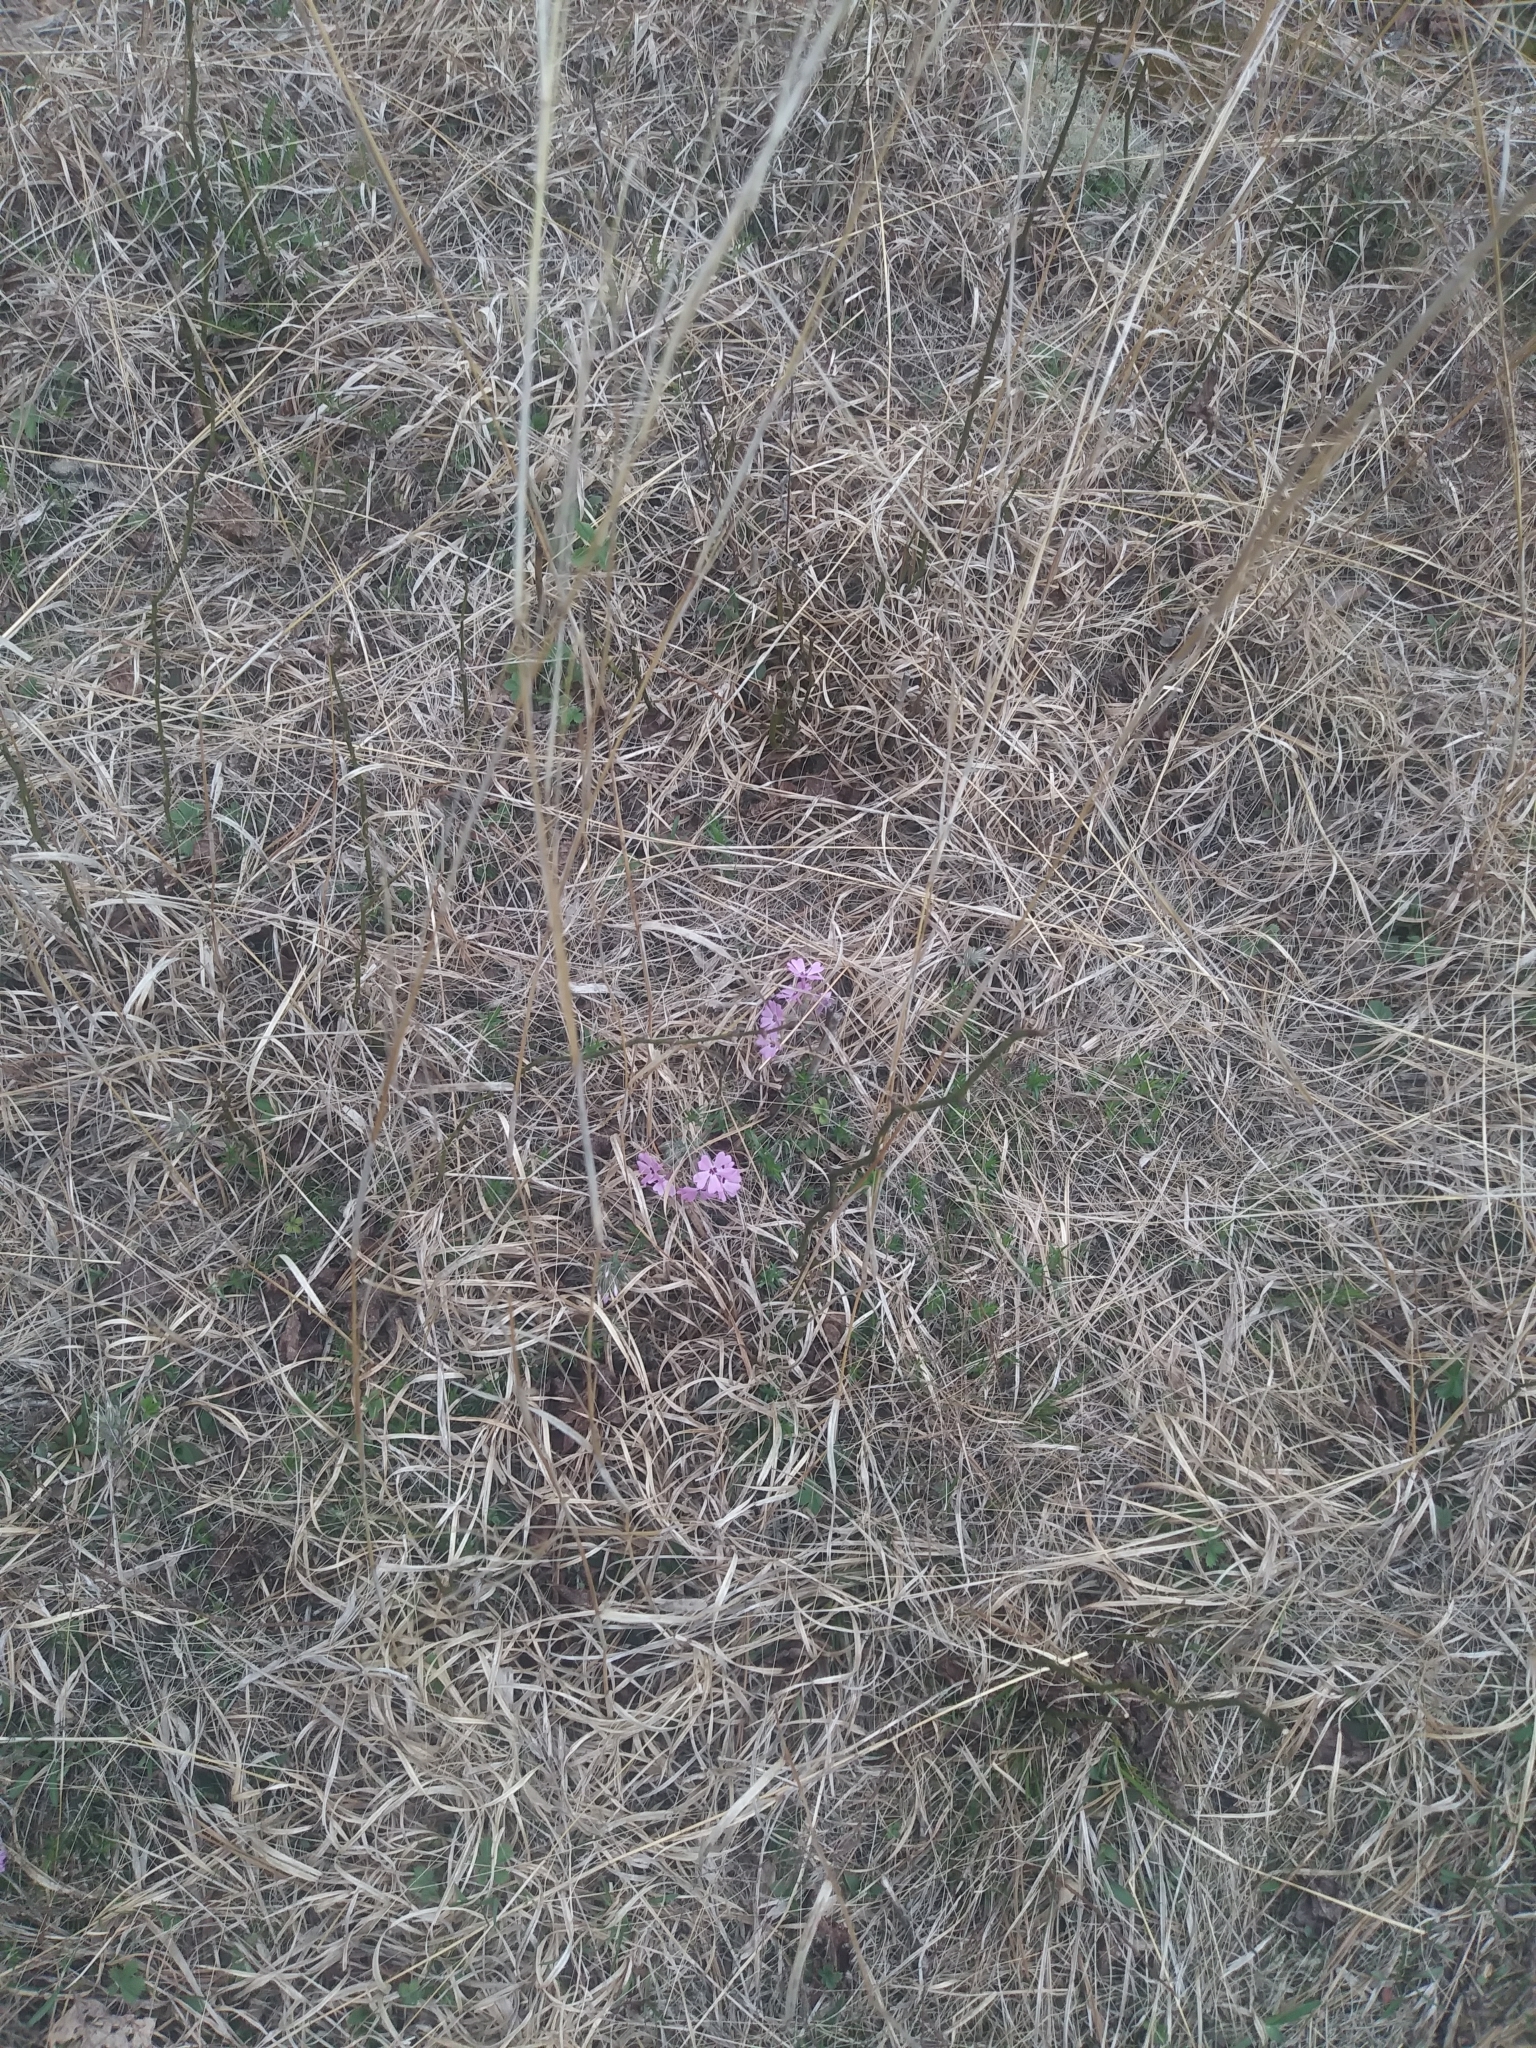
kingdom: Plantae
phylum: Tracheophyta
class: Magnoliopsida
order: Ericales
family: Polemoniaceae
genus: Phlox
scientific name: Phlox subulata
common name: Moss phlox
